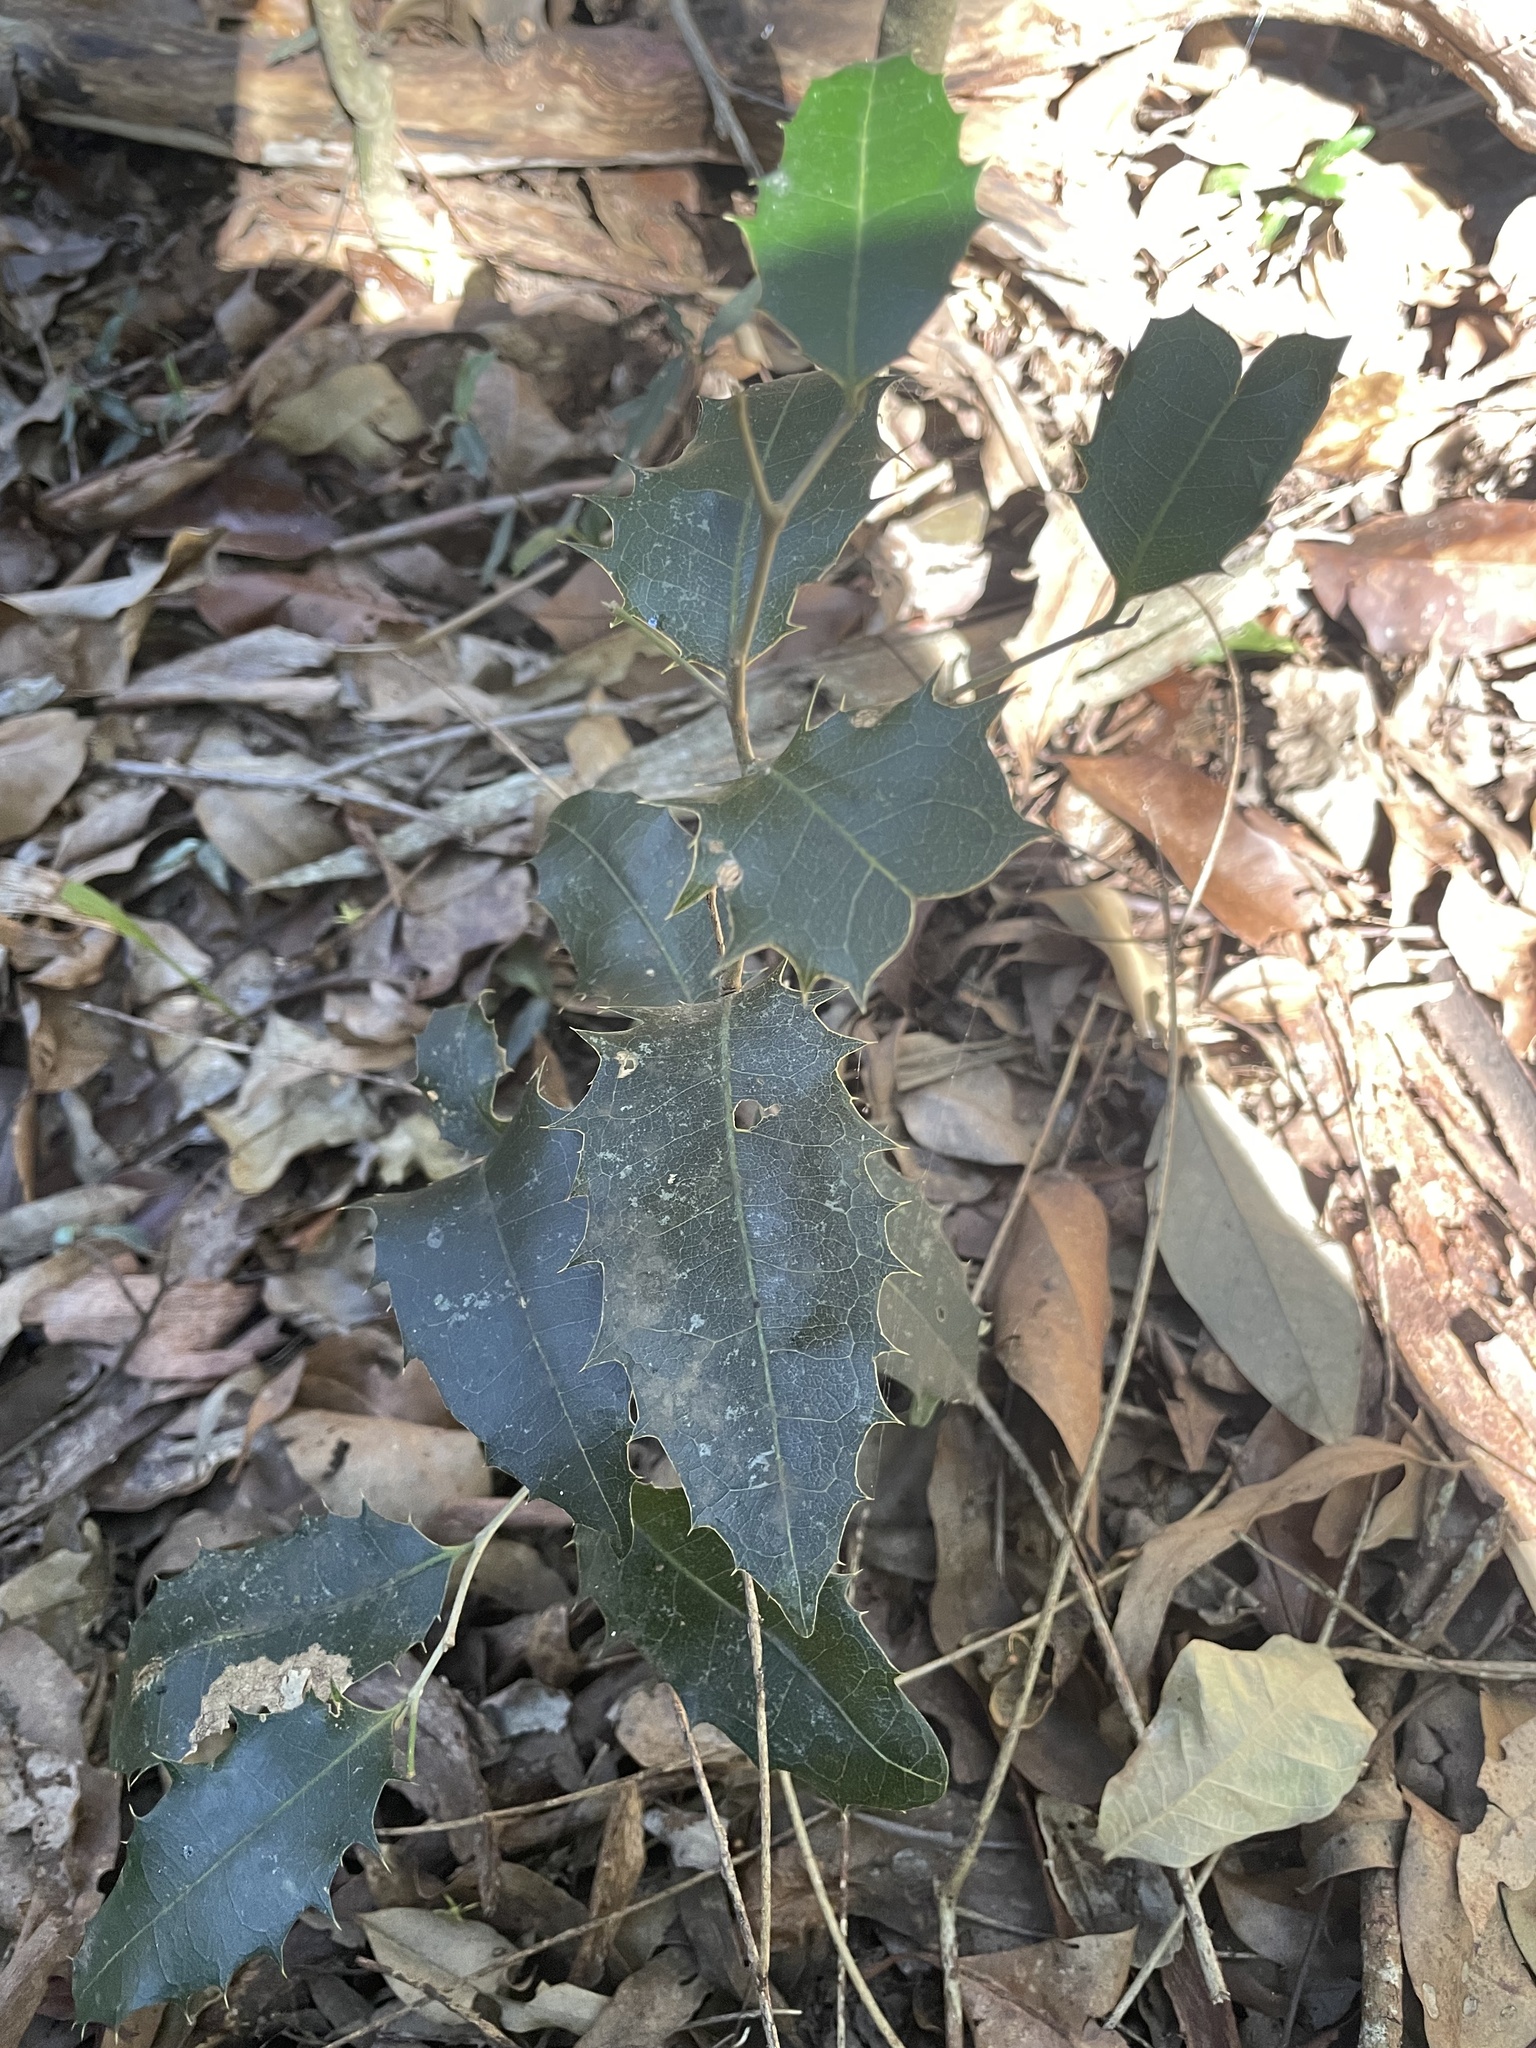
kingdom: Plantae
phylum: Tracheophyta
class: Magnoliopsida
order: Malpighiales
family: Putranjivaceae
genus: Drypetes
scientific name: Drypetes deplanchei
